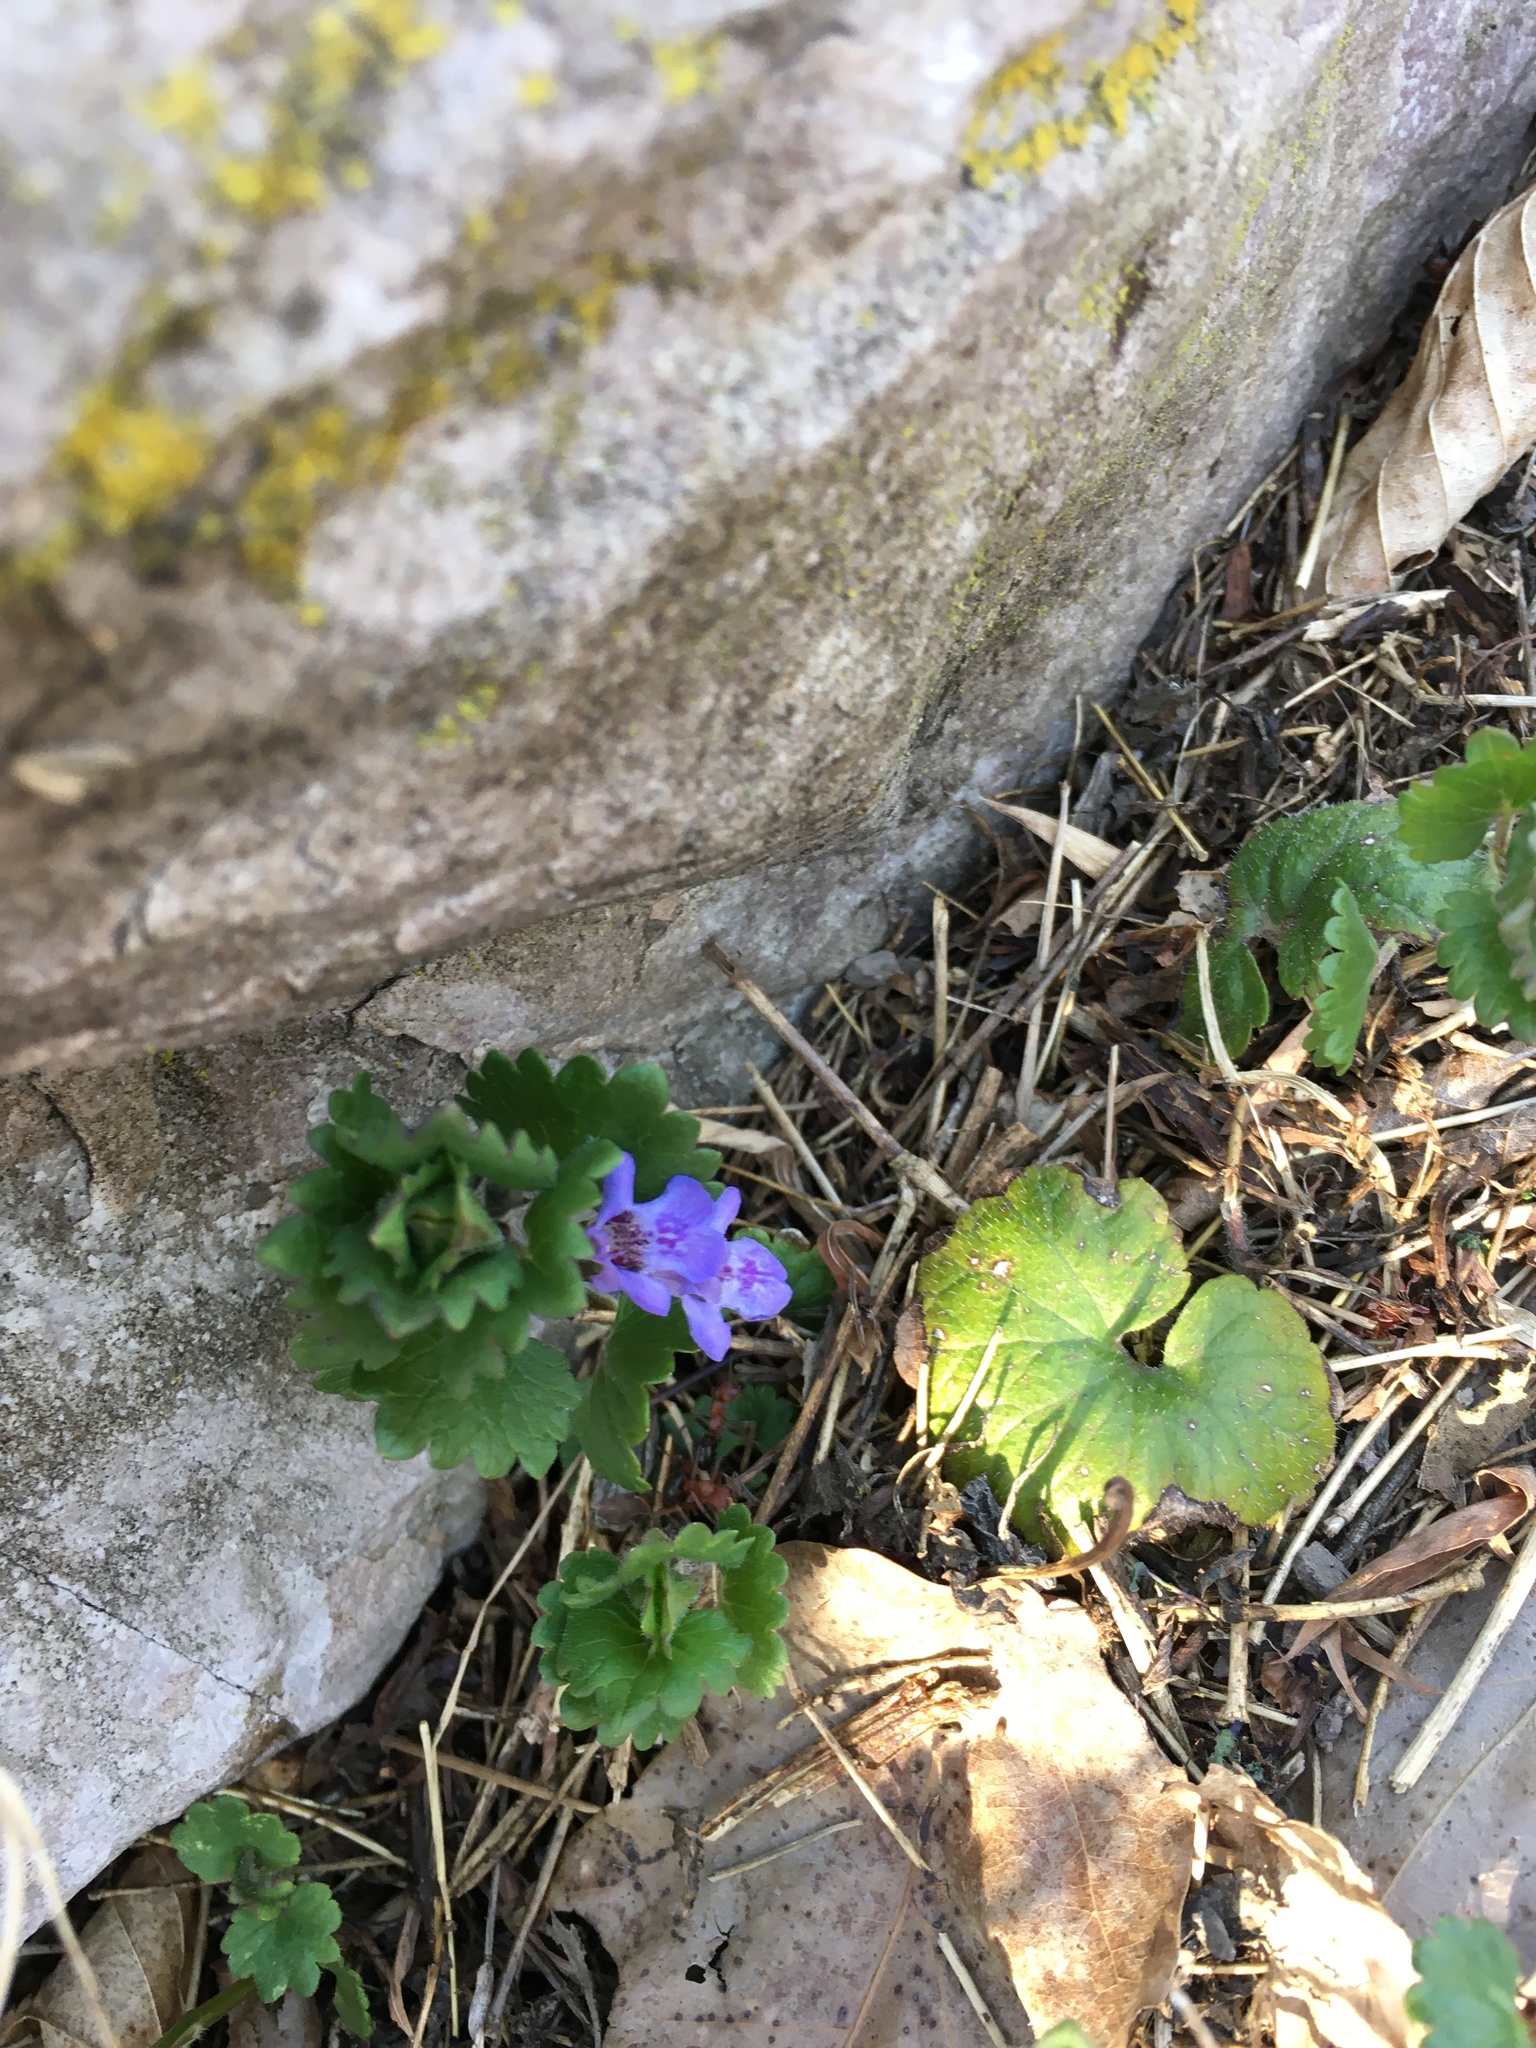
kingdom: Plantae
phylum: Tracheophyta
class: Magnoliopsida
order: Lamiales
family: Lamiaceae
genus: Glechoma
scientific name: Glechoma hederacea
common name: Ground ivy
